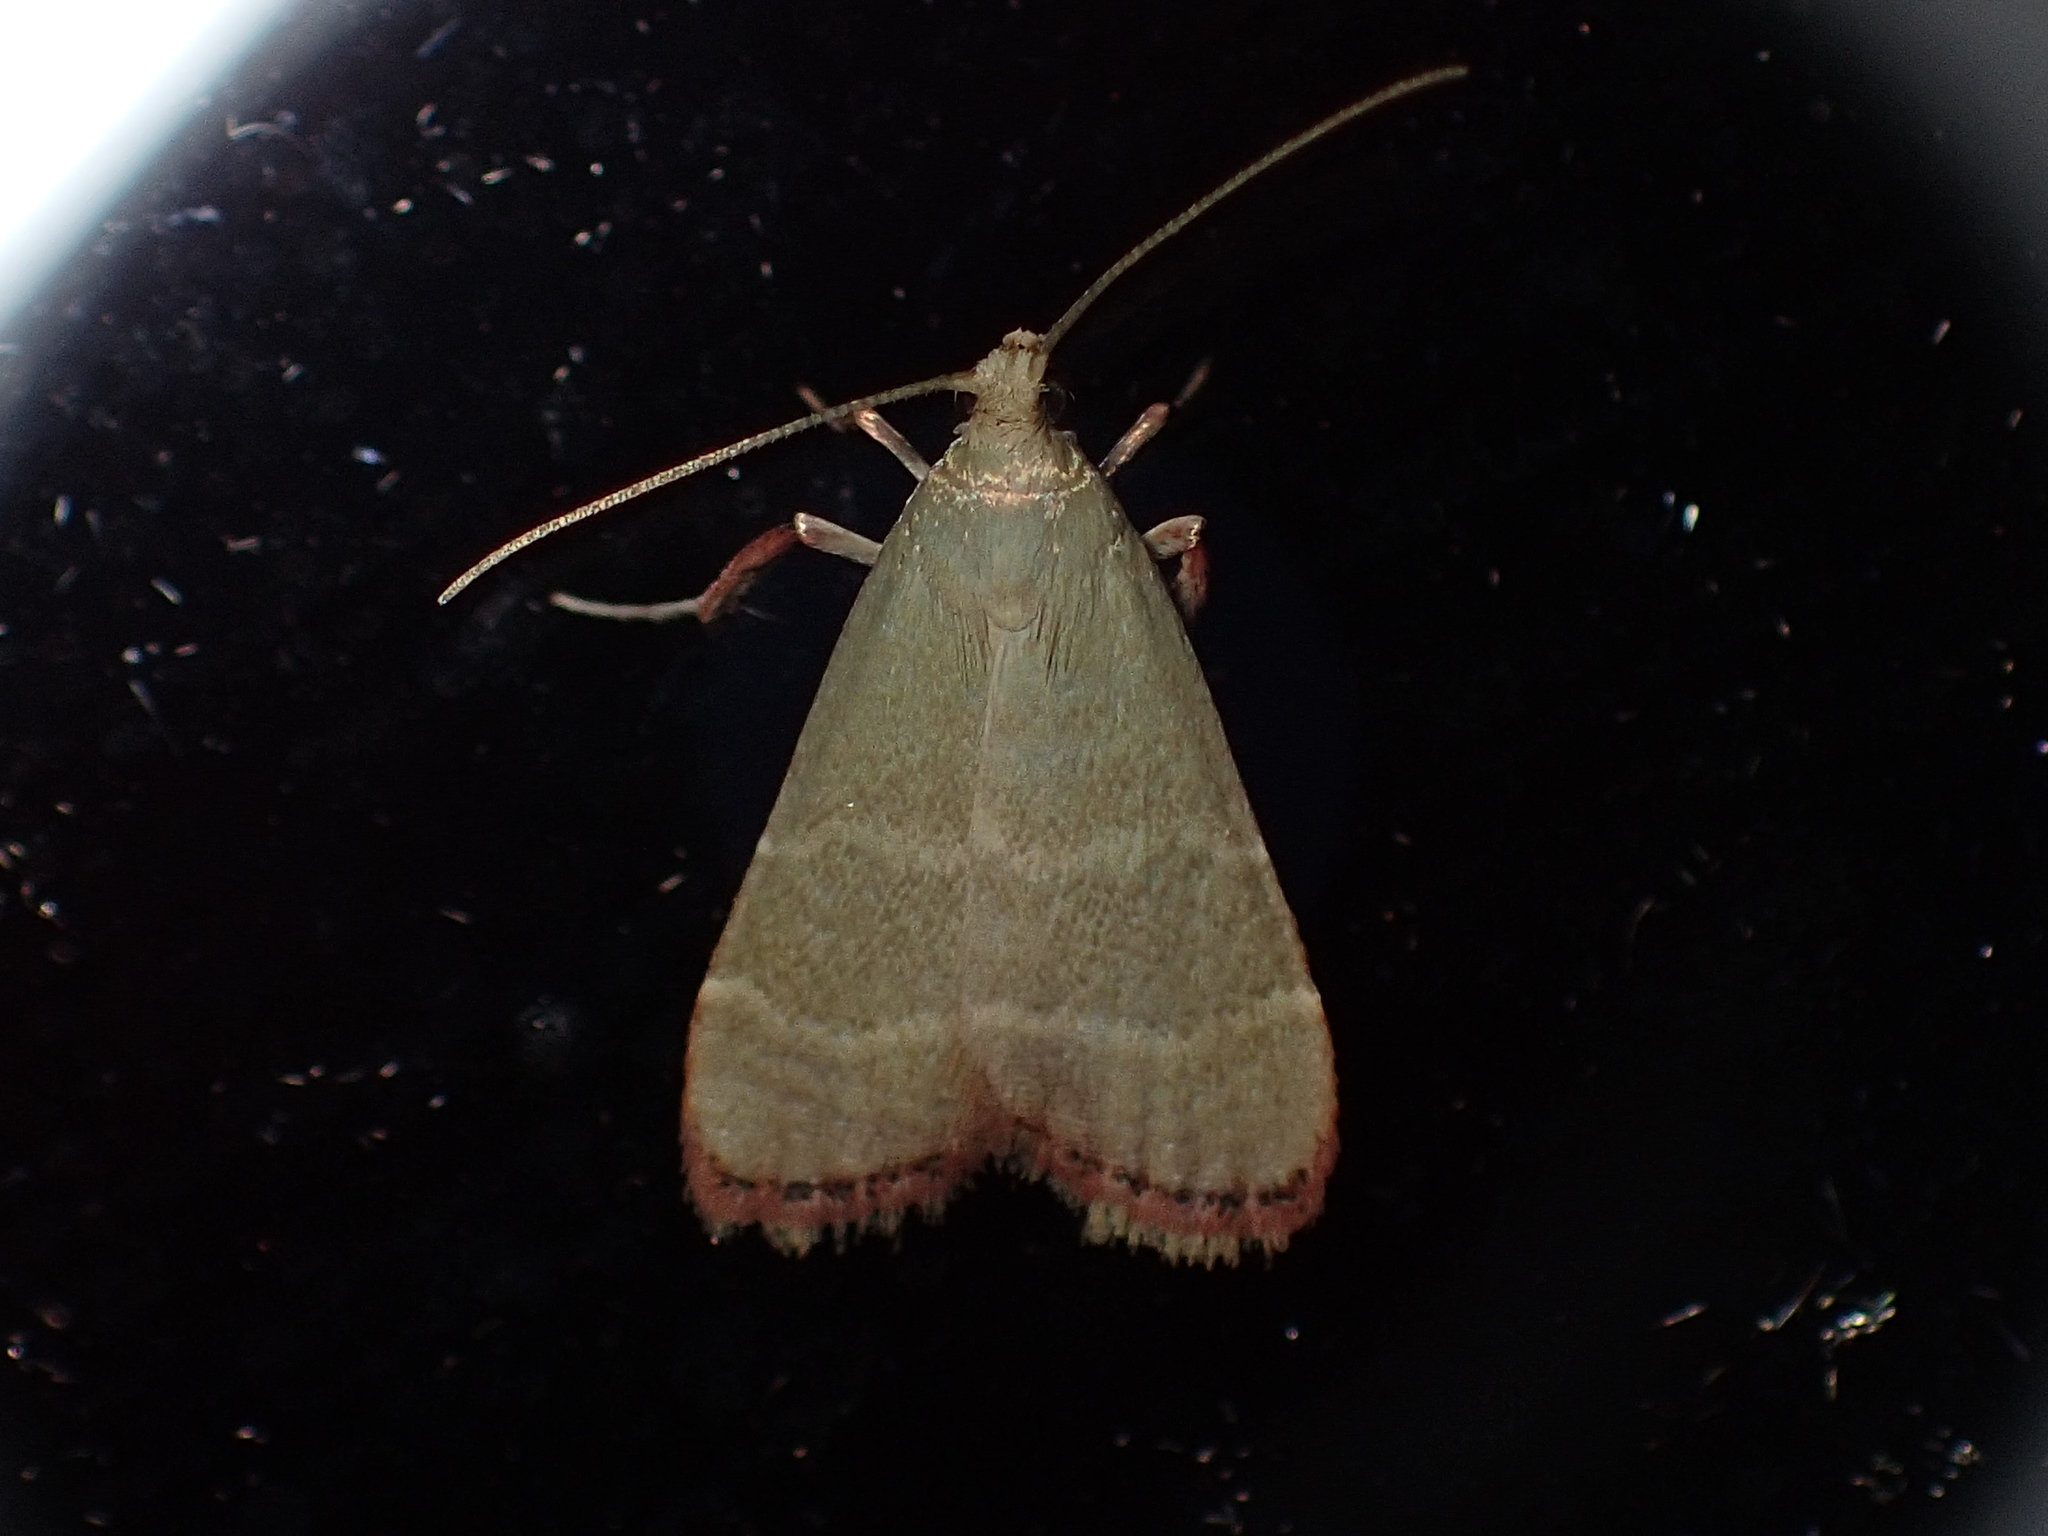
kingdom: Animalia
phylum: Arthropoda
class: Insecta
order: Lepidoptera
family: Pyralidae
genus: Arta
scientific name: Arta olivalis
